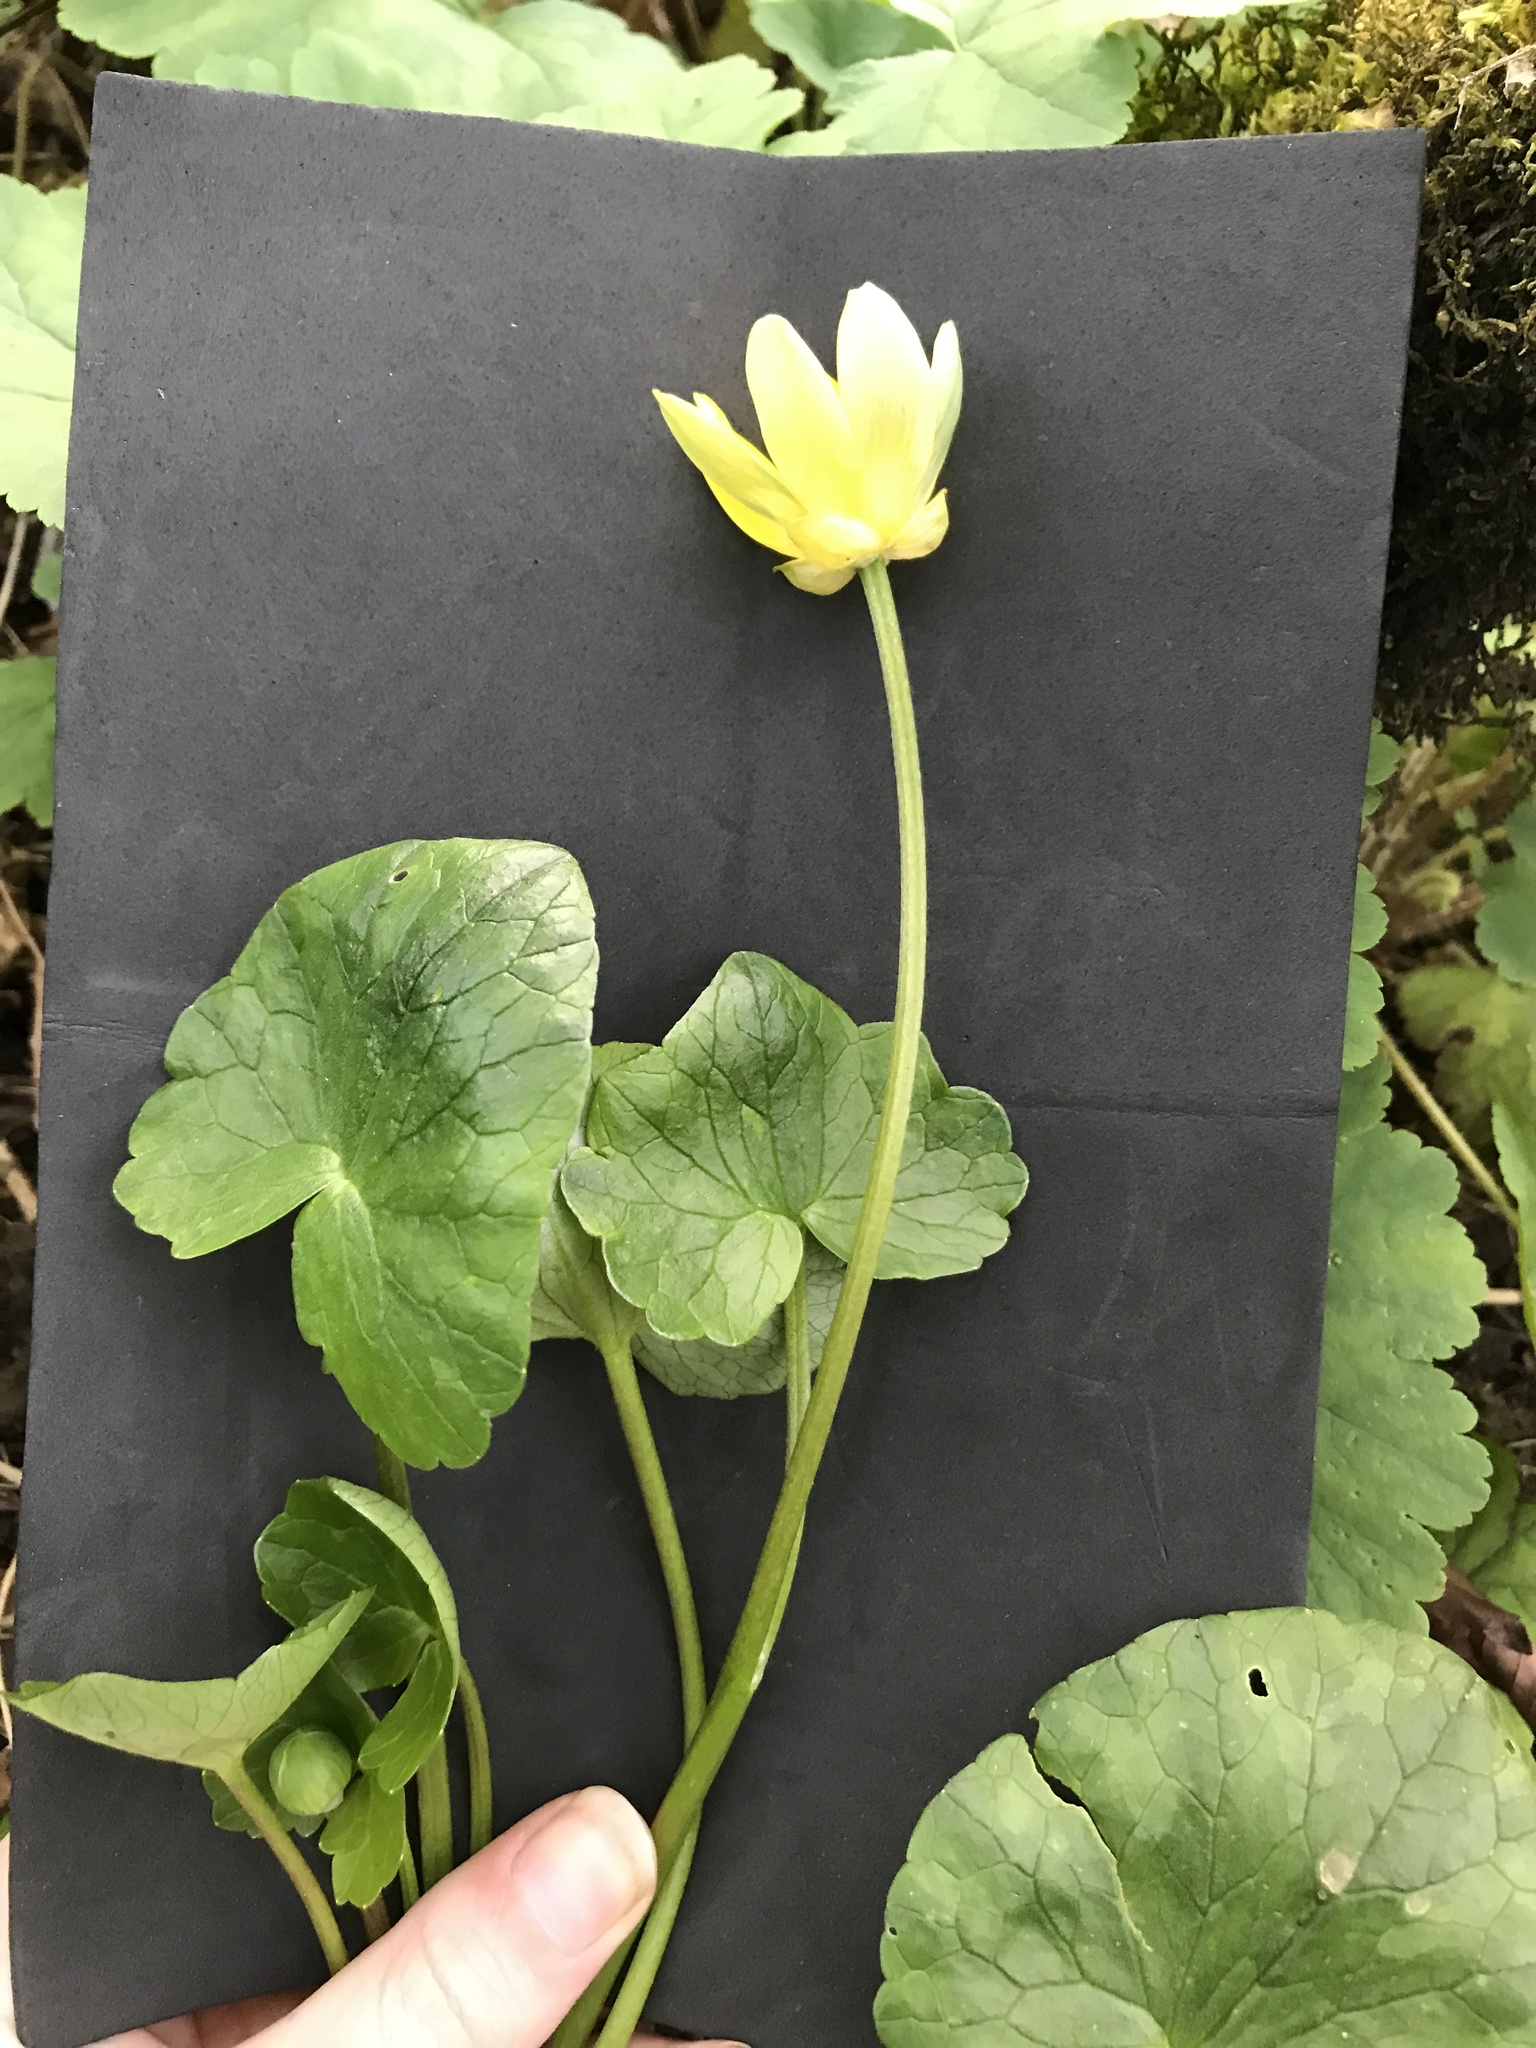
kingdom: Plantae
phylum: Tracheophyta
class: Magnoliopsida
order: Ranunculales
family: Ranunculaceae
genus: Ficaria
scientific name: Ficaria verna
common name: Lesser celandine
